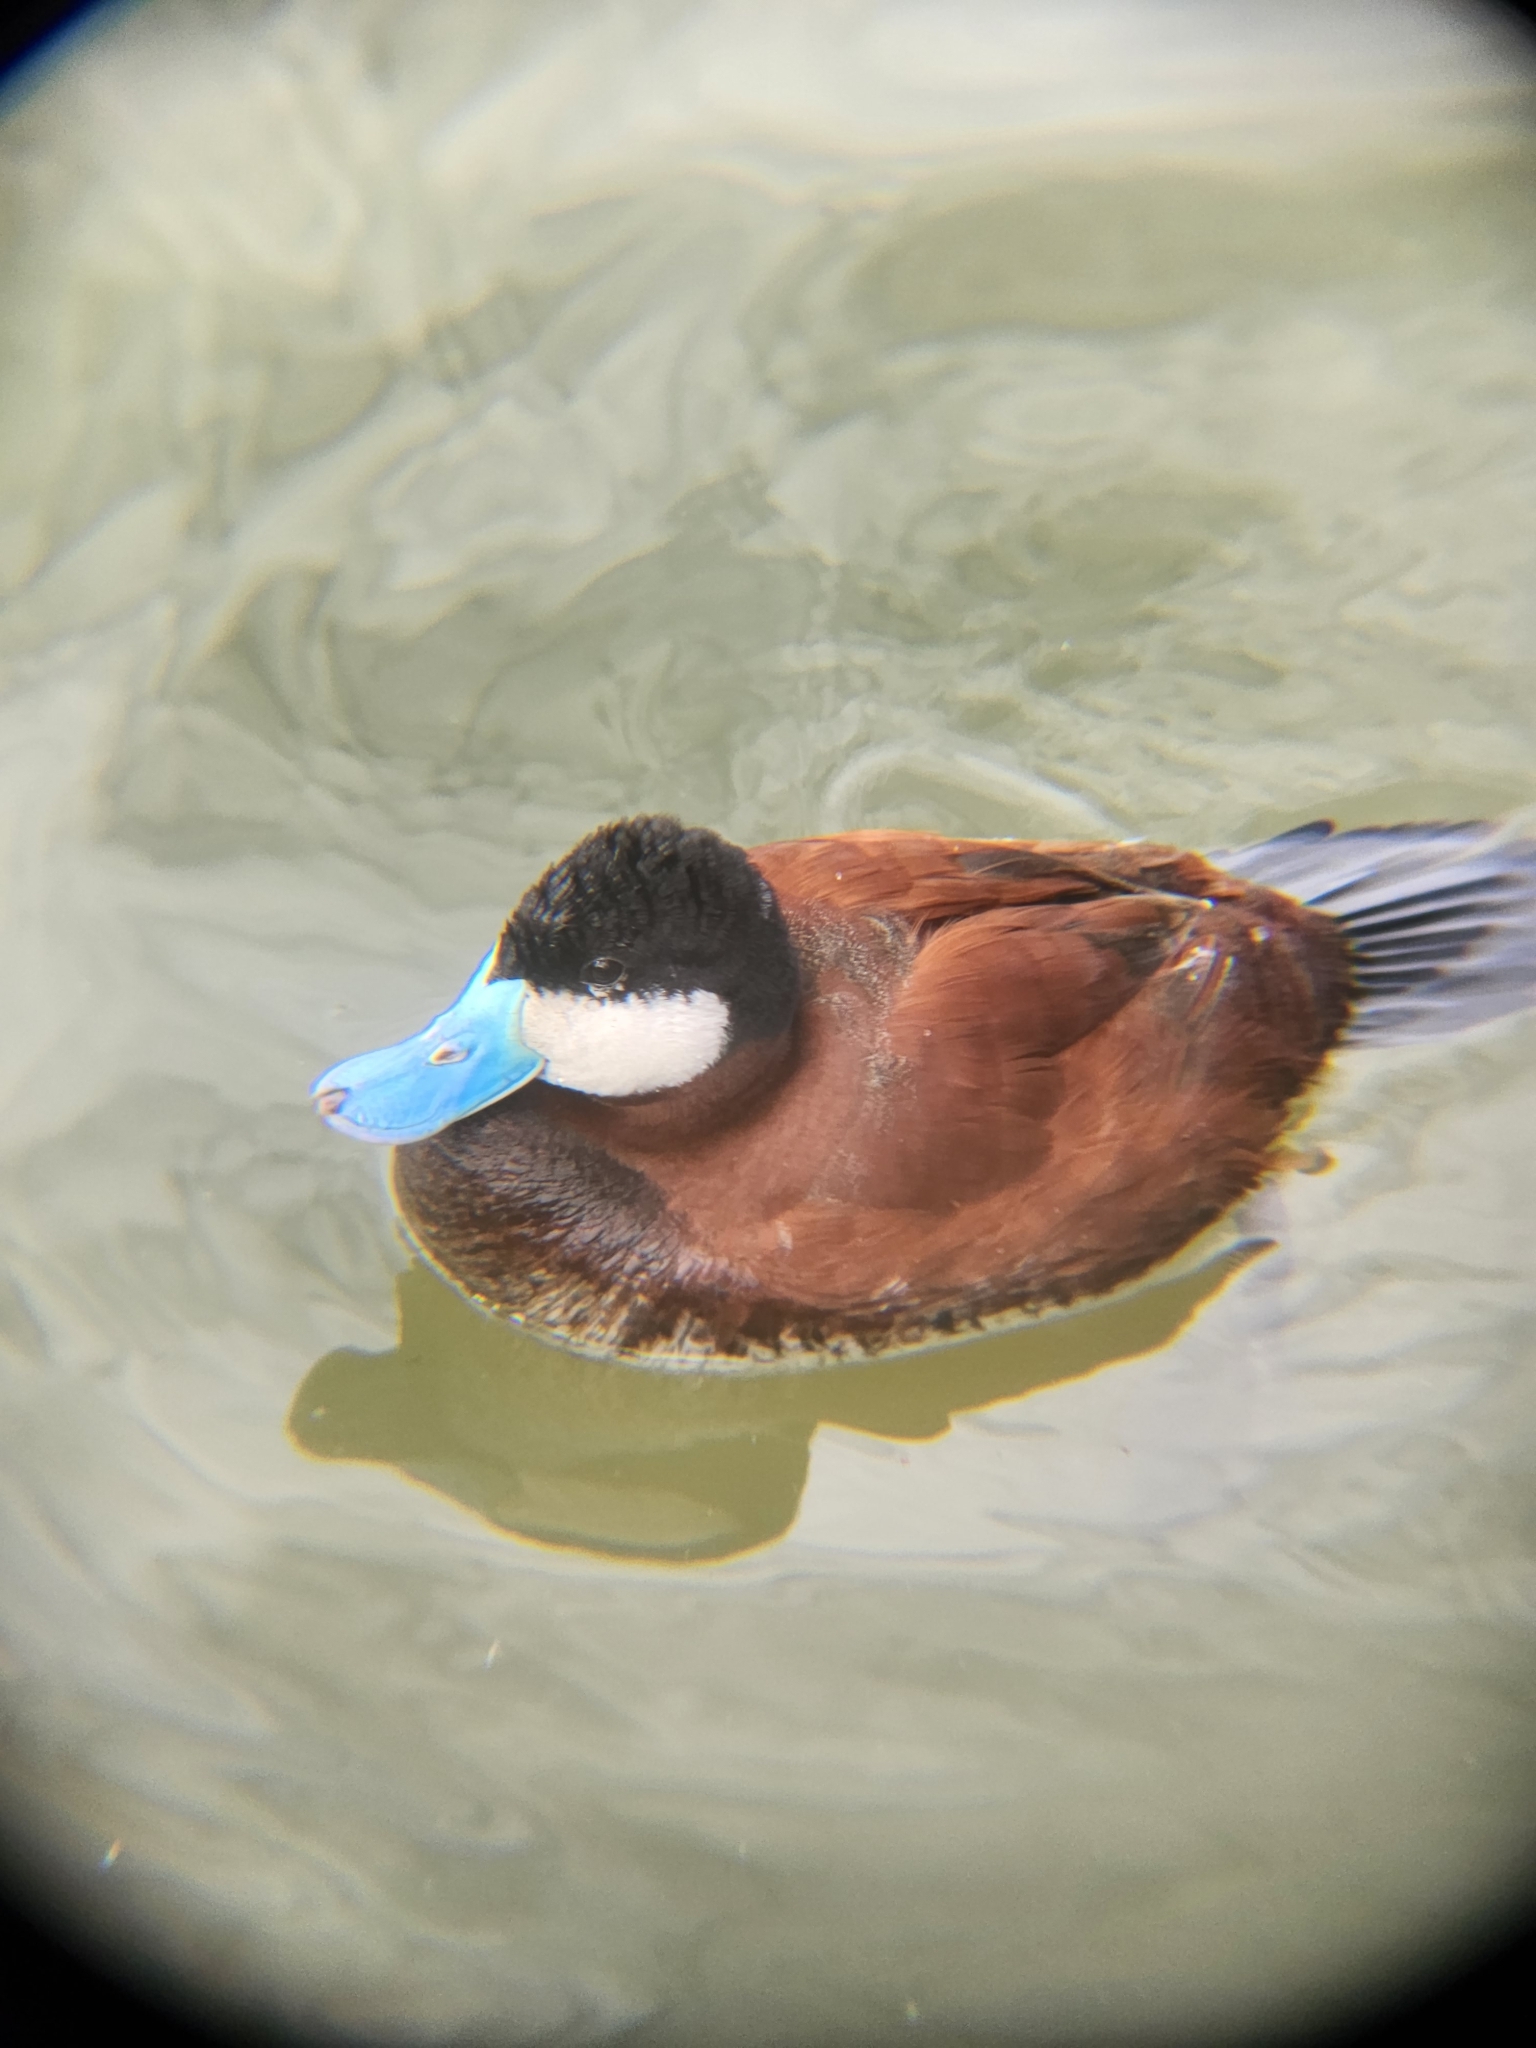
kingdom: Animalia
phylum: Chordata
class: Aves
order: Anseriformes
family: Anatidae
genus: Oxyura
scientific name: Oxyura jamaicensis
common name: Ruddy duck
